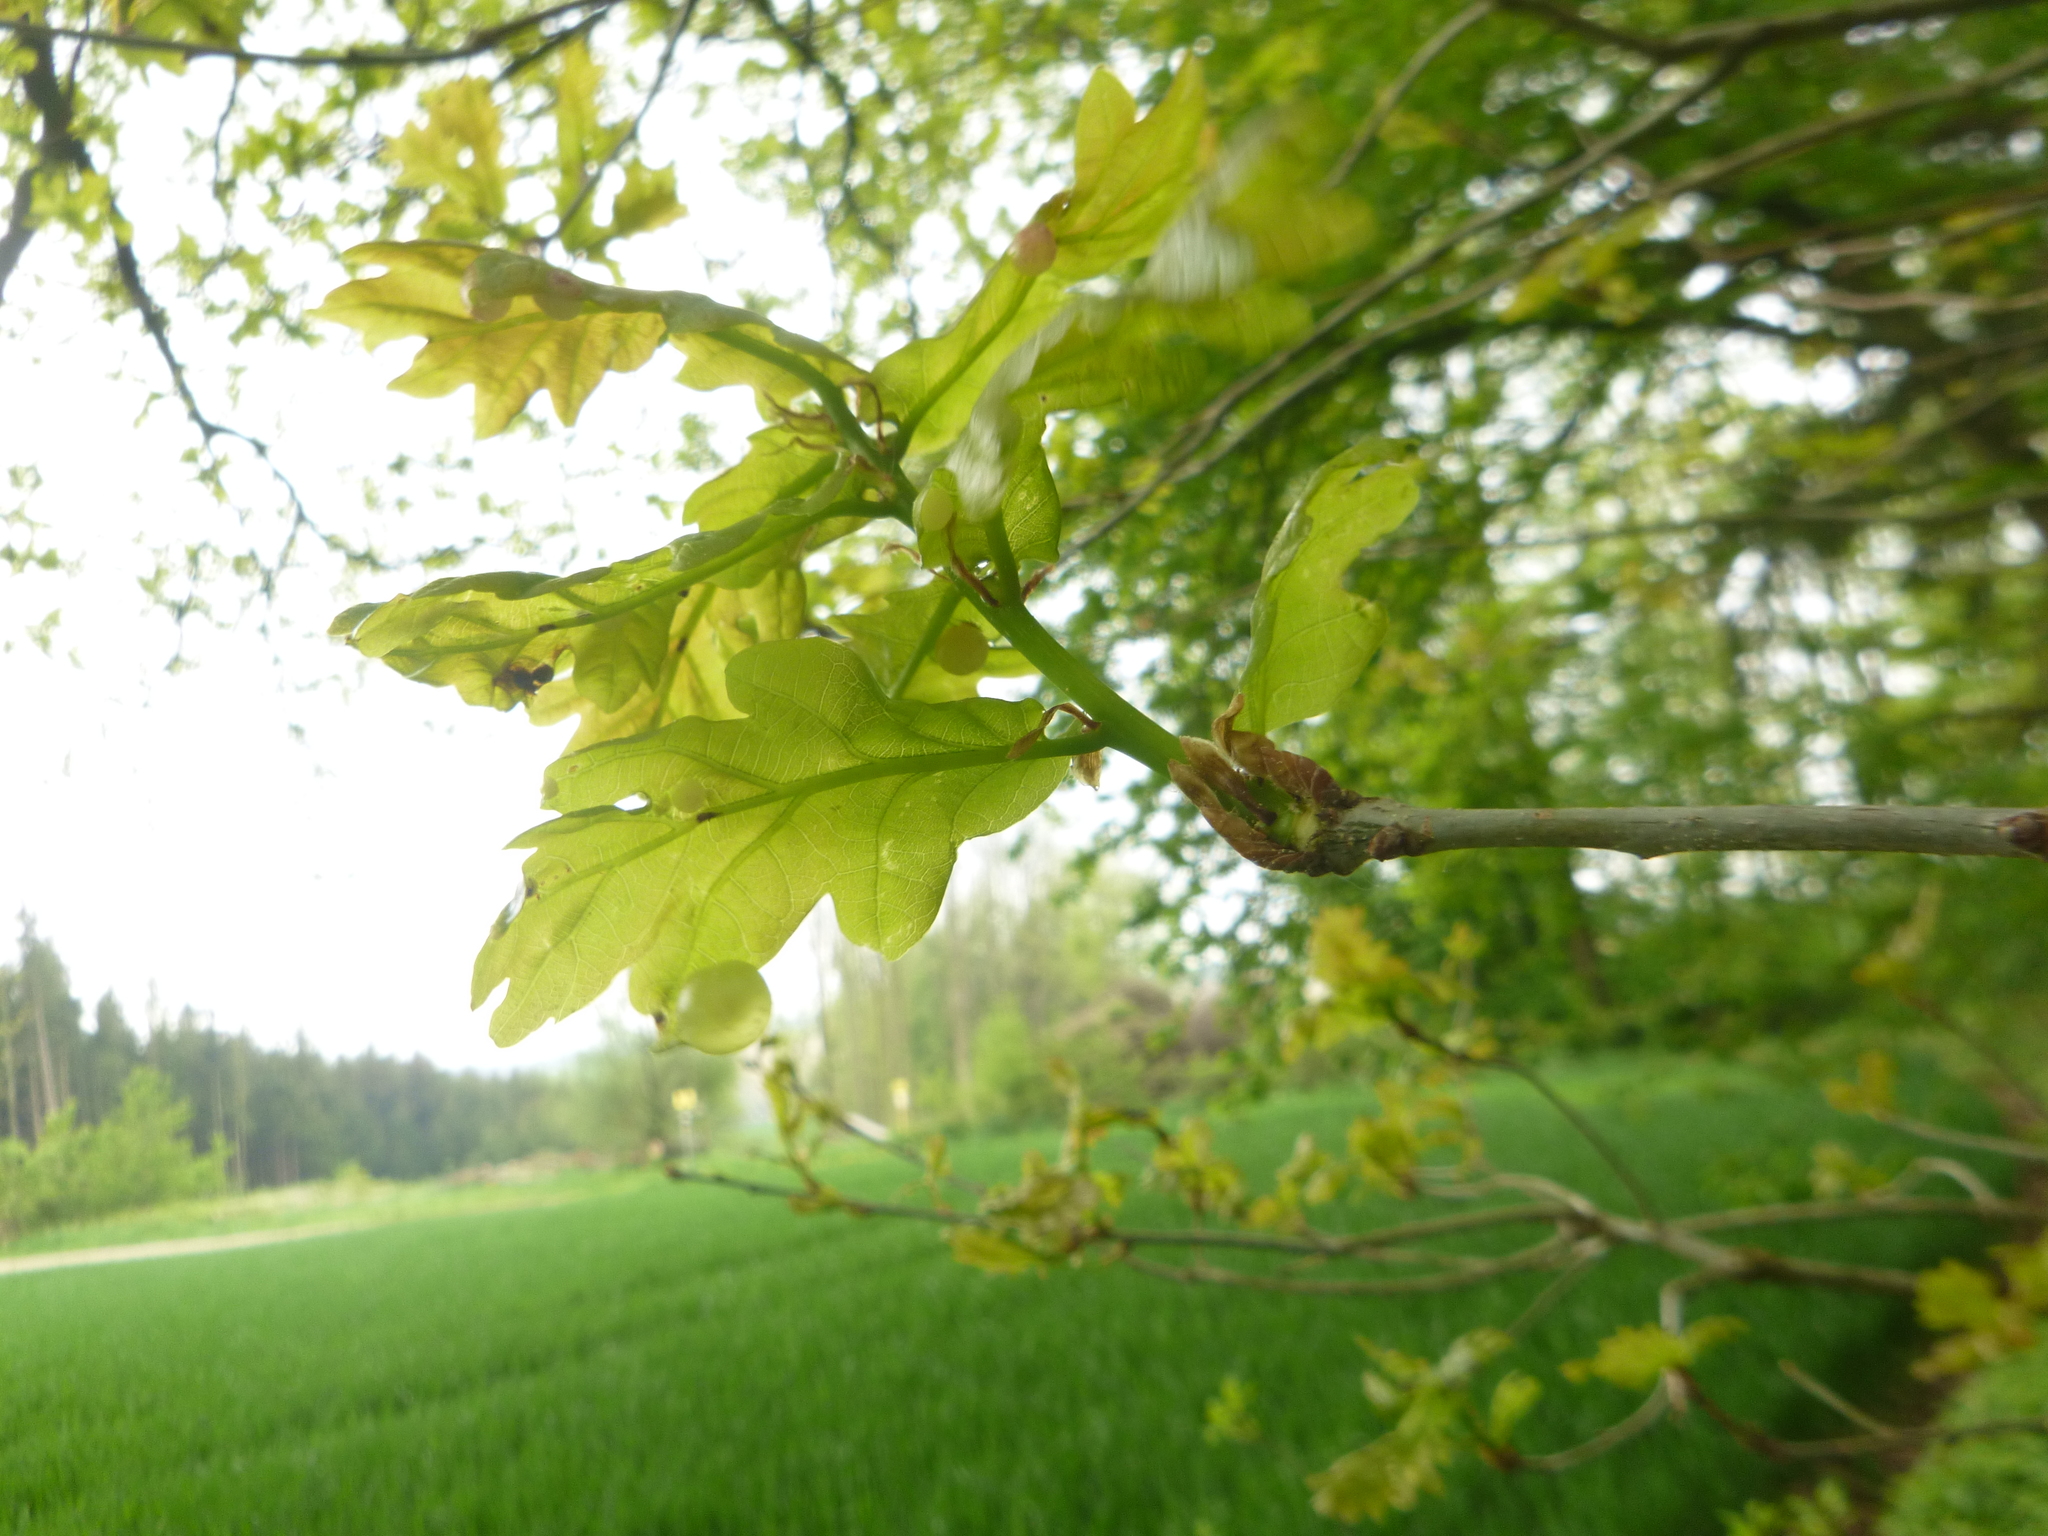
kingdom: Plantae
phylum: Tracheophyta
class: Magnoliopsida
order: Fagales
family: Fagaceae
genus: Quercus
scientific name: Quercus robur
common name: Pedunculate oak
